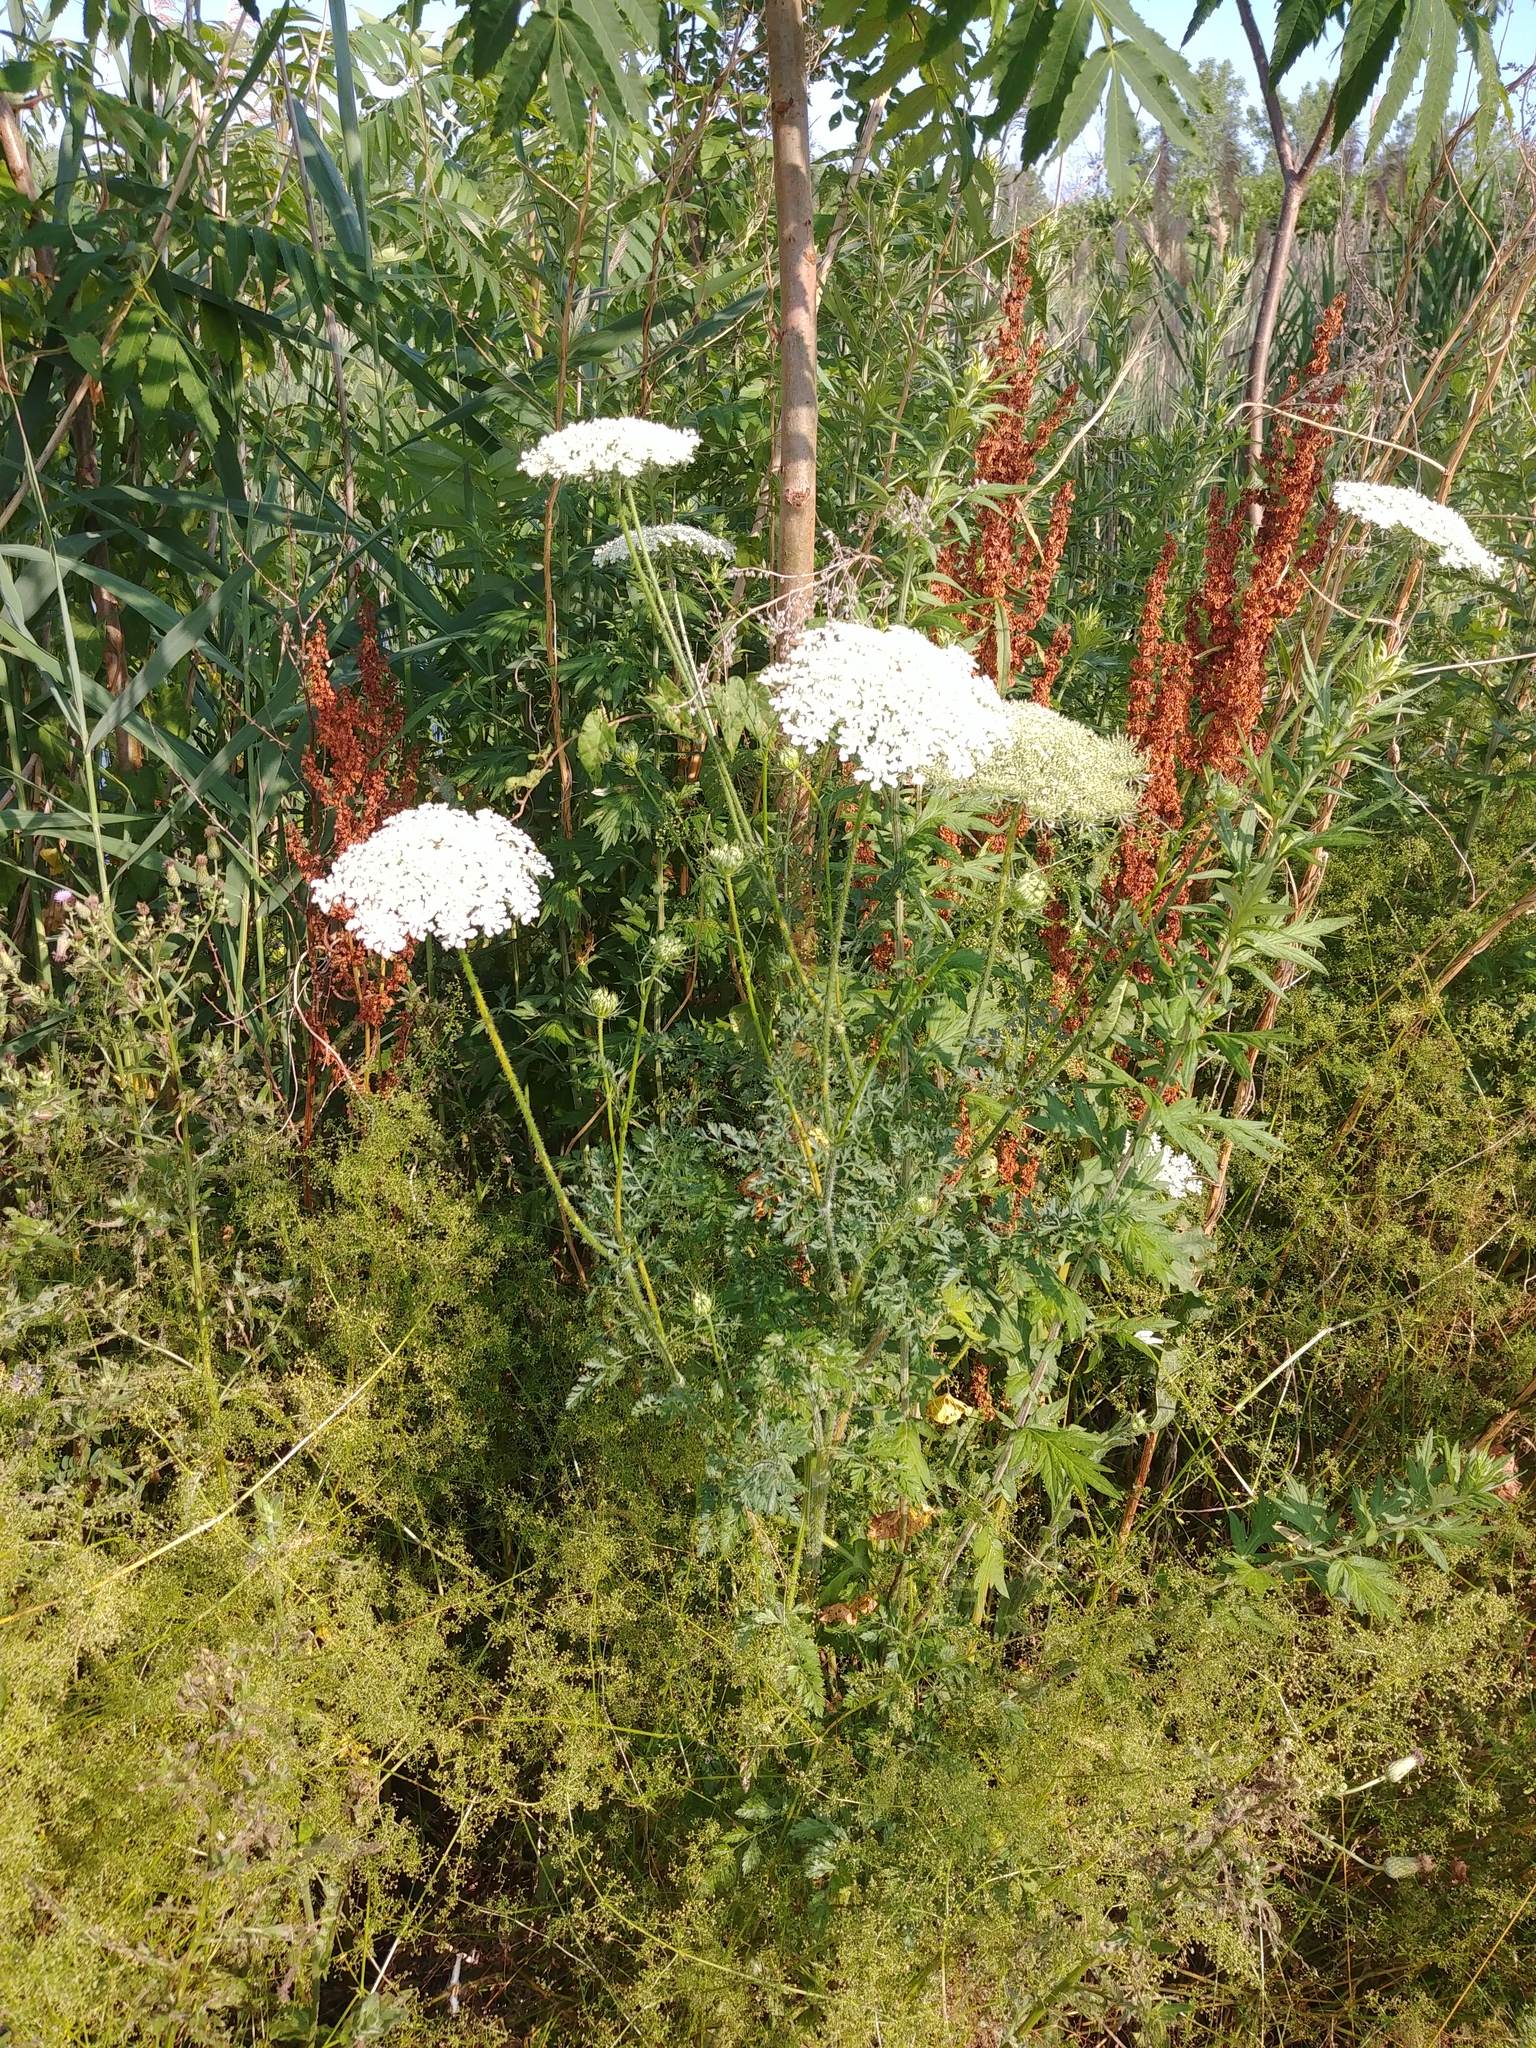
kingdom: Plantae
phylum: Tracheophyta
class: Magnoliopsida
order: Apiales
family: Apiaceae
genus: Daucus
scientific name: Daucus carota
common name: Wild carrot
